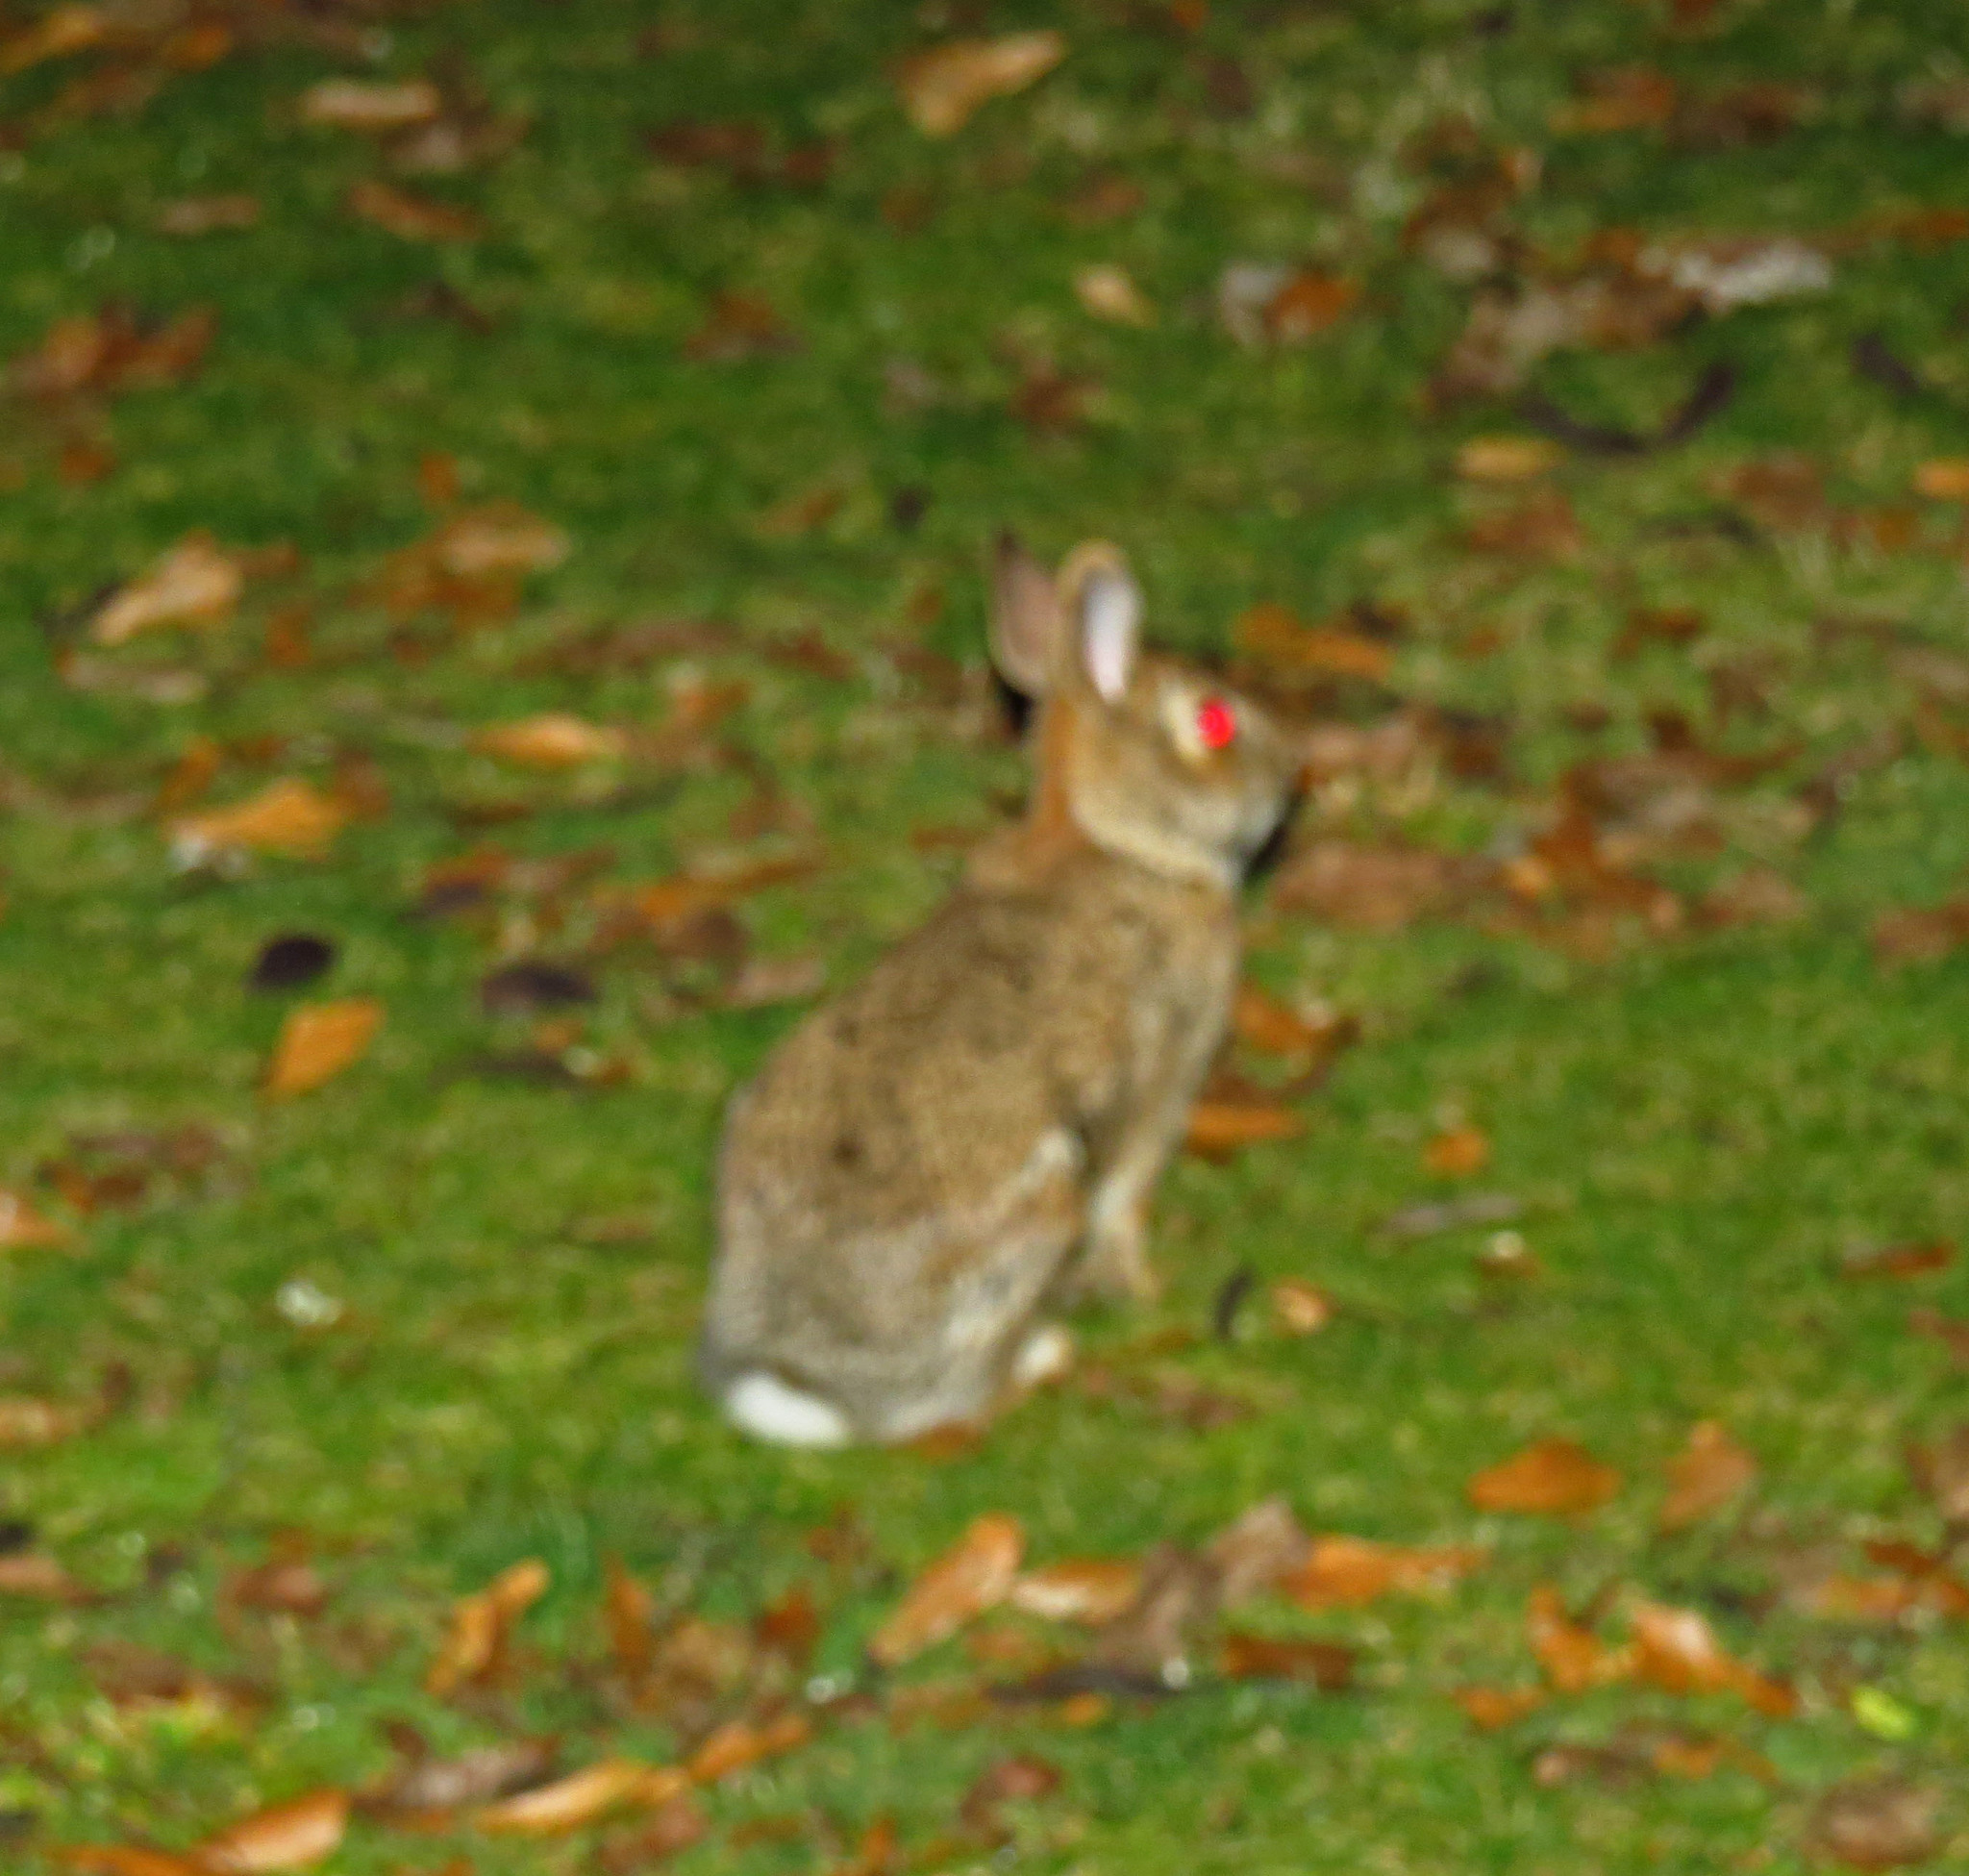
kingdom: Animalia
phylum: Chordata
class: Mammalia
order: Lagomorpha
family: Leporidae
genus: Sylvilagus
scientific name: Sylvilagus floridanus
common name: Eastern cottontail
